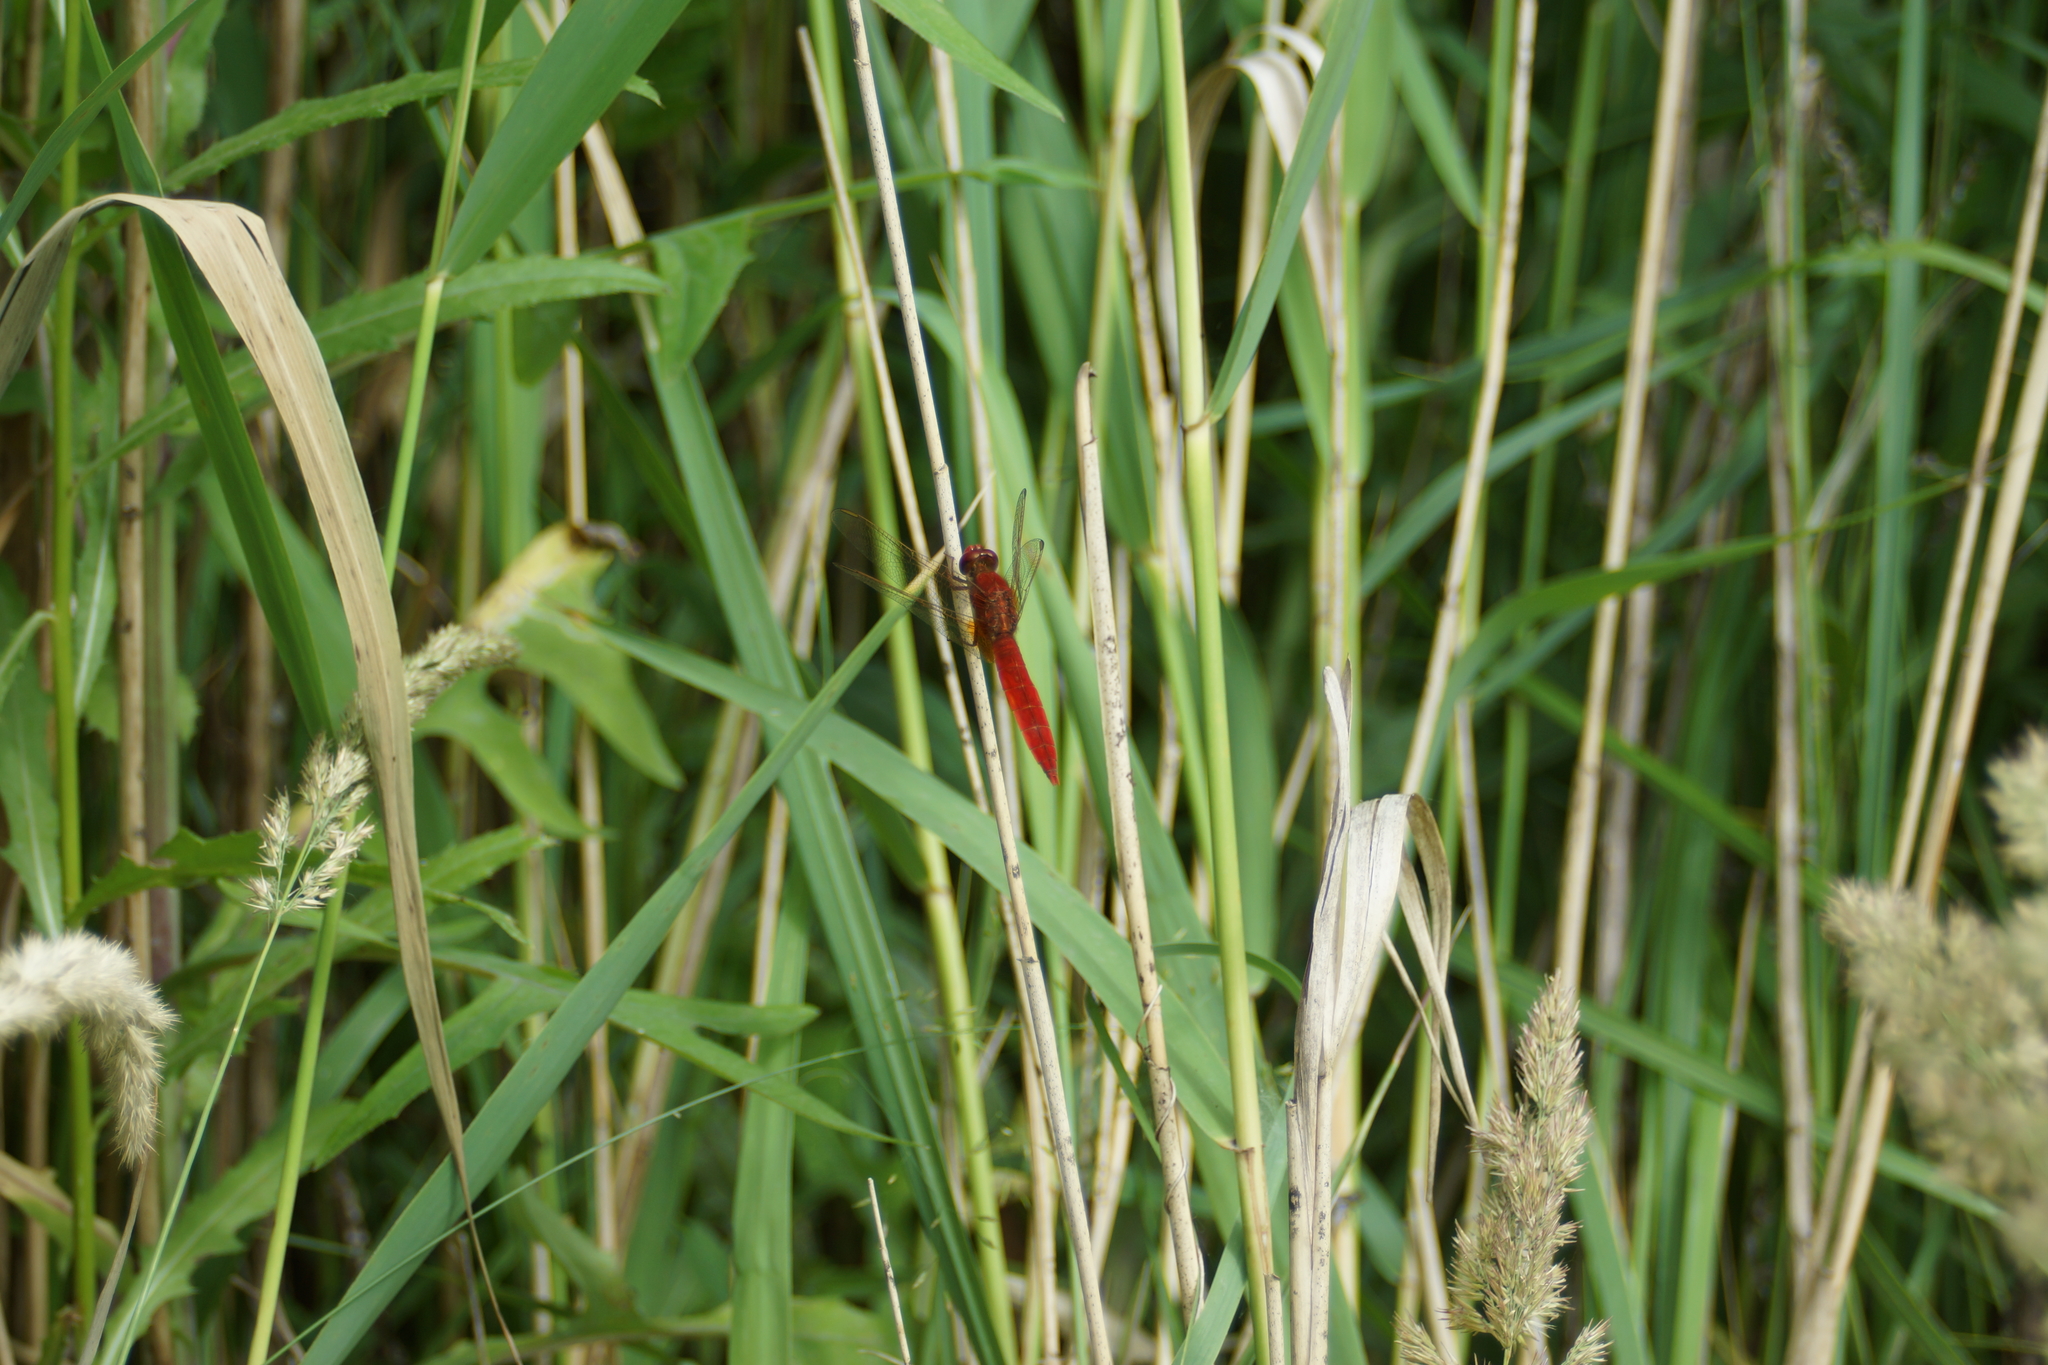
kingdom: Animalia
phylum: Arthropoda
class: Insecta
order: Odonata
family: Libellulidae
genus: Crocothemis
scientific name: Crocothemis erythraea
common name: Scarlet dragonfly
